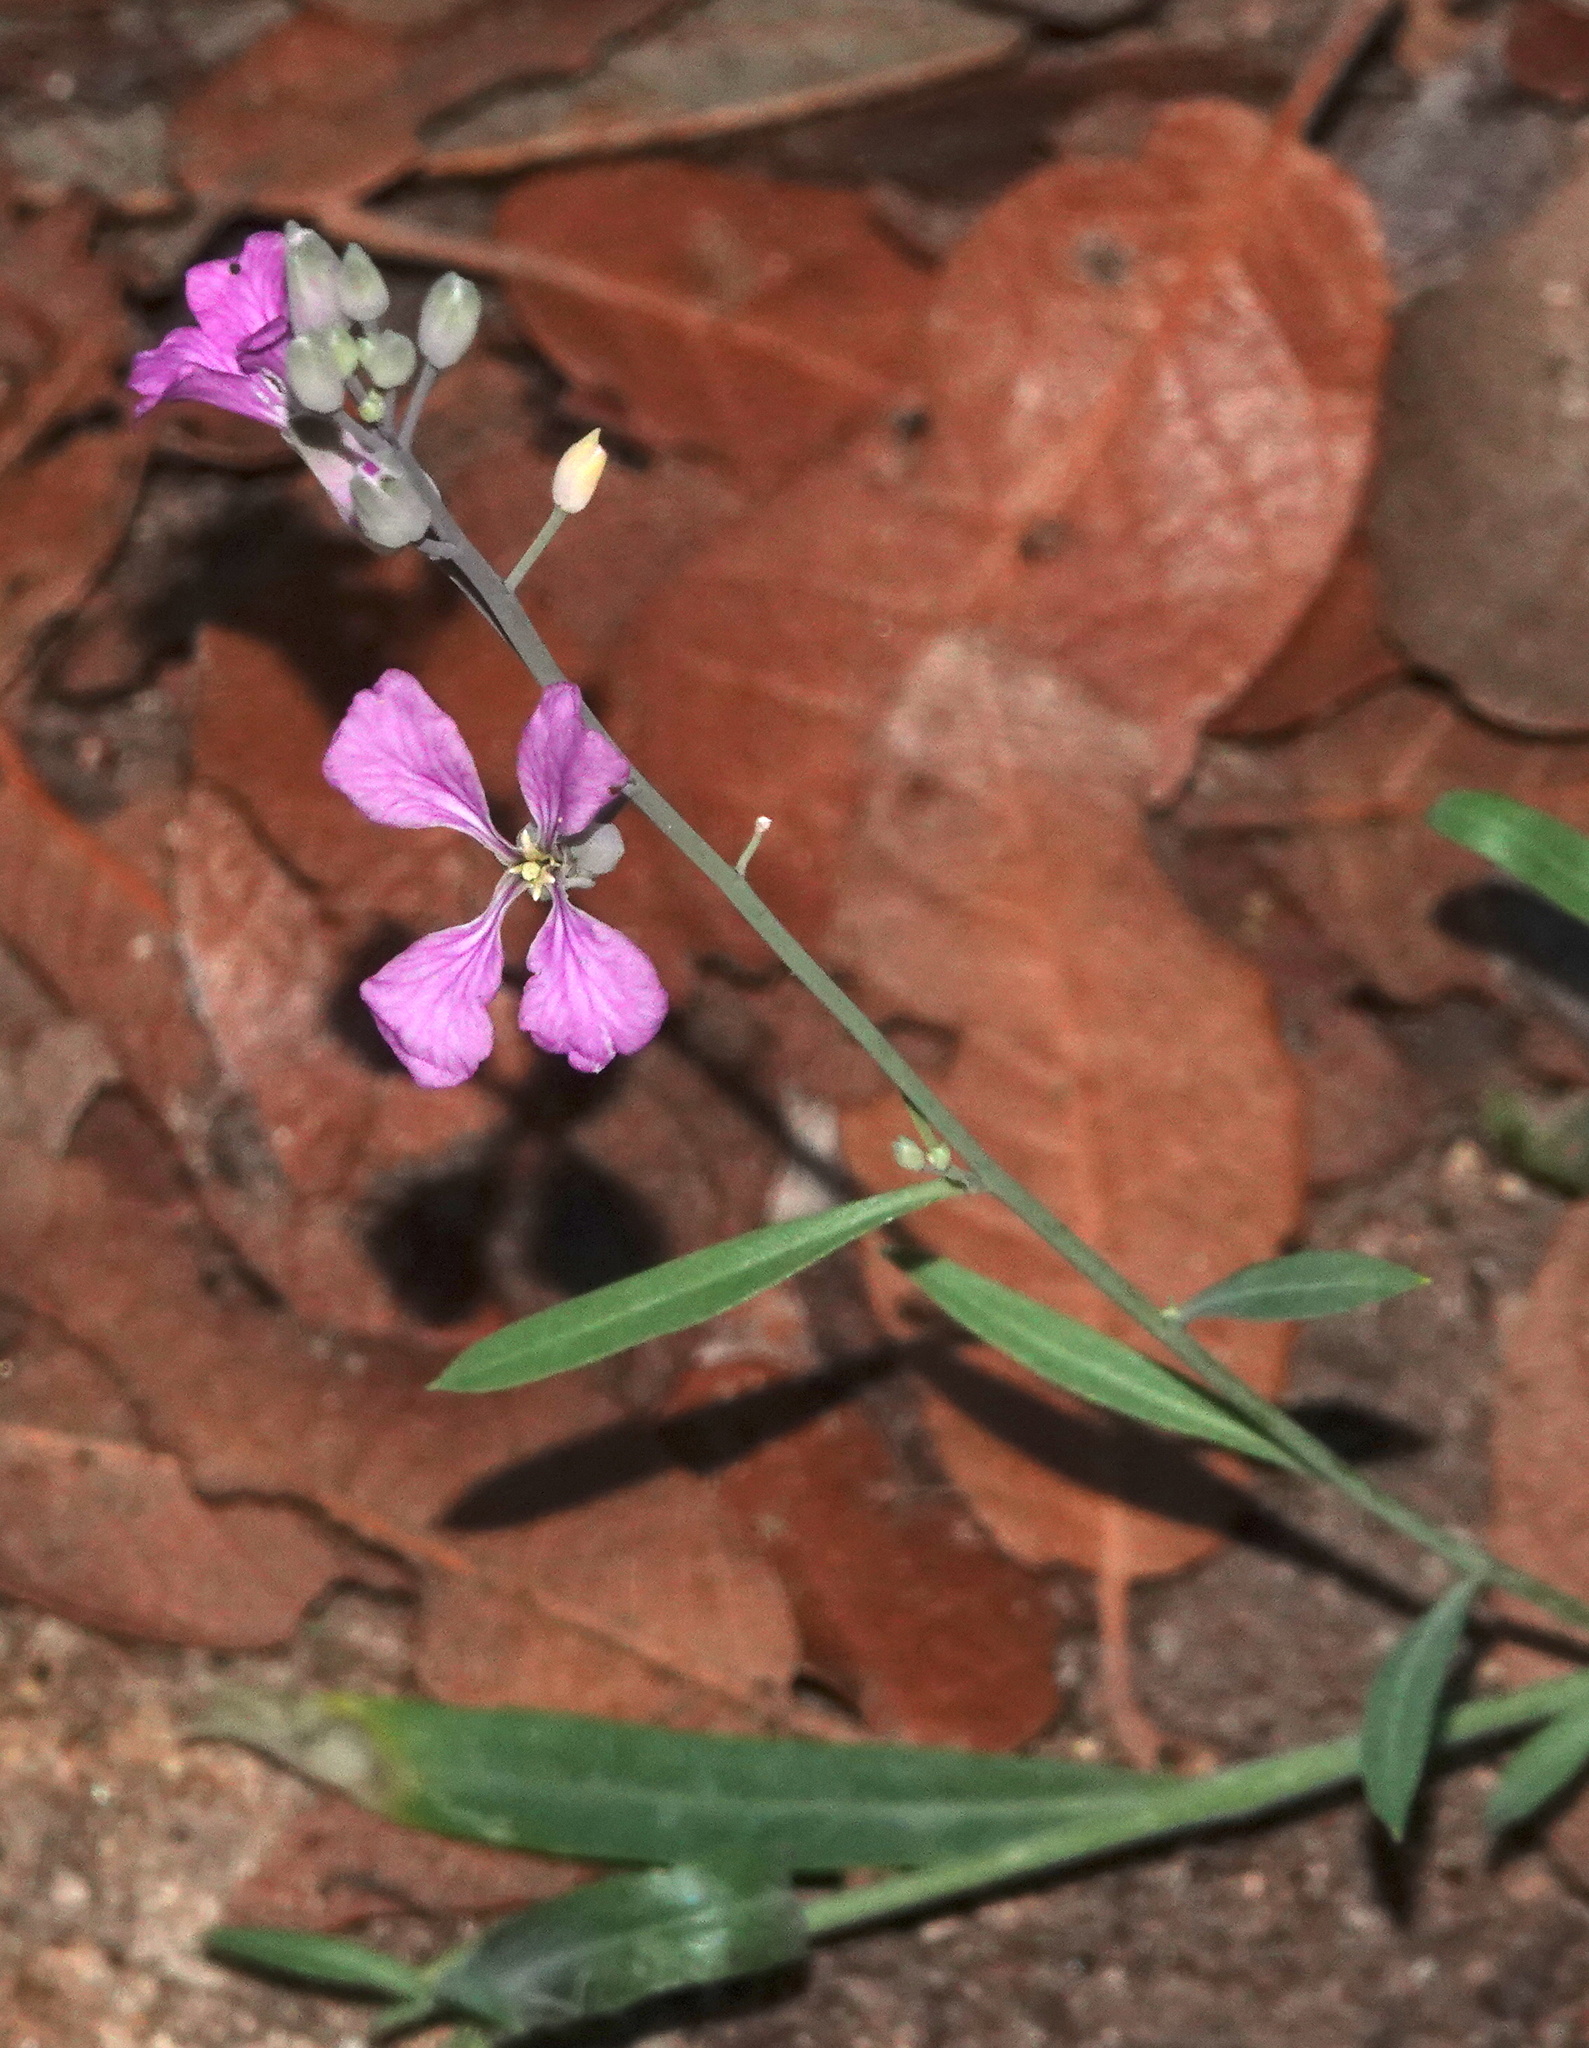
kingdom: Plantae
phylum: Tracheophyta
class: Magnoliopsida
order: Brassicales
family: Brassicaceae
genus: Hesperidanthus
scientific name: Hesperidanthus linearifolius
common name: Slim-leaf plains mustard
